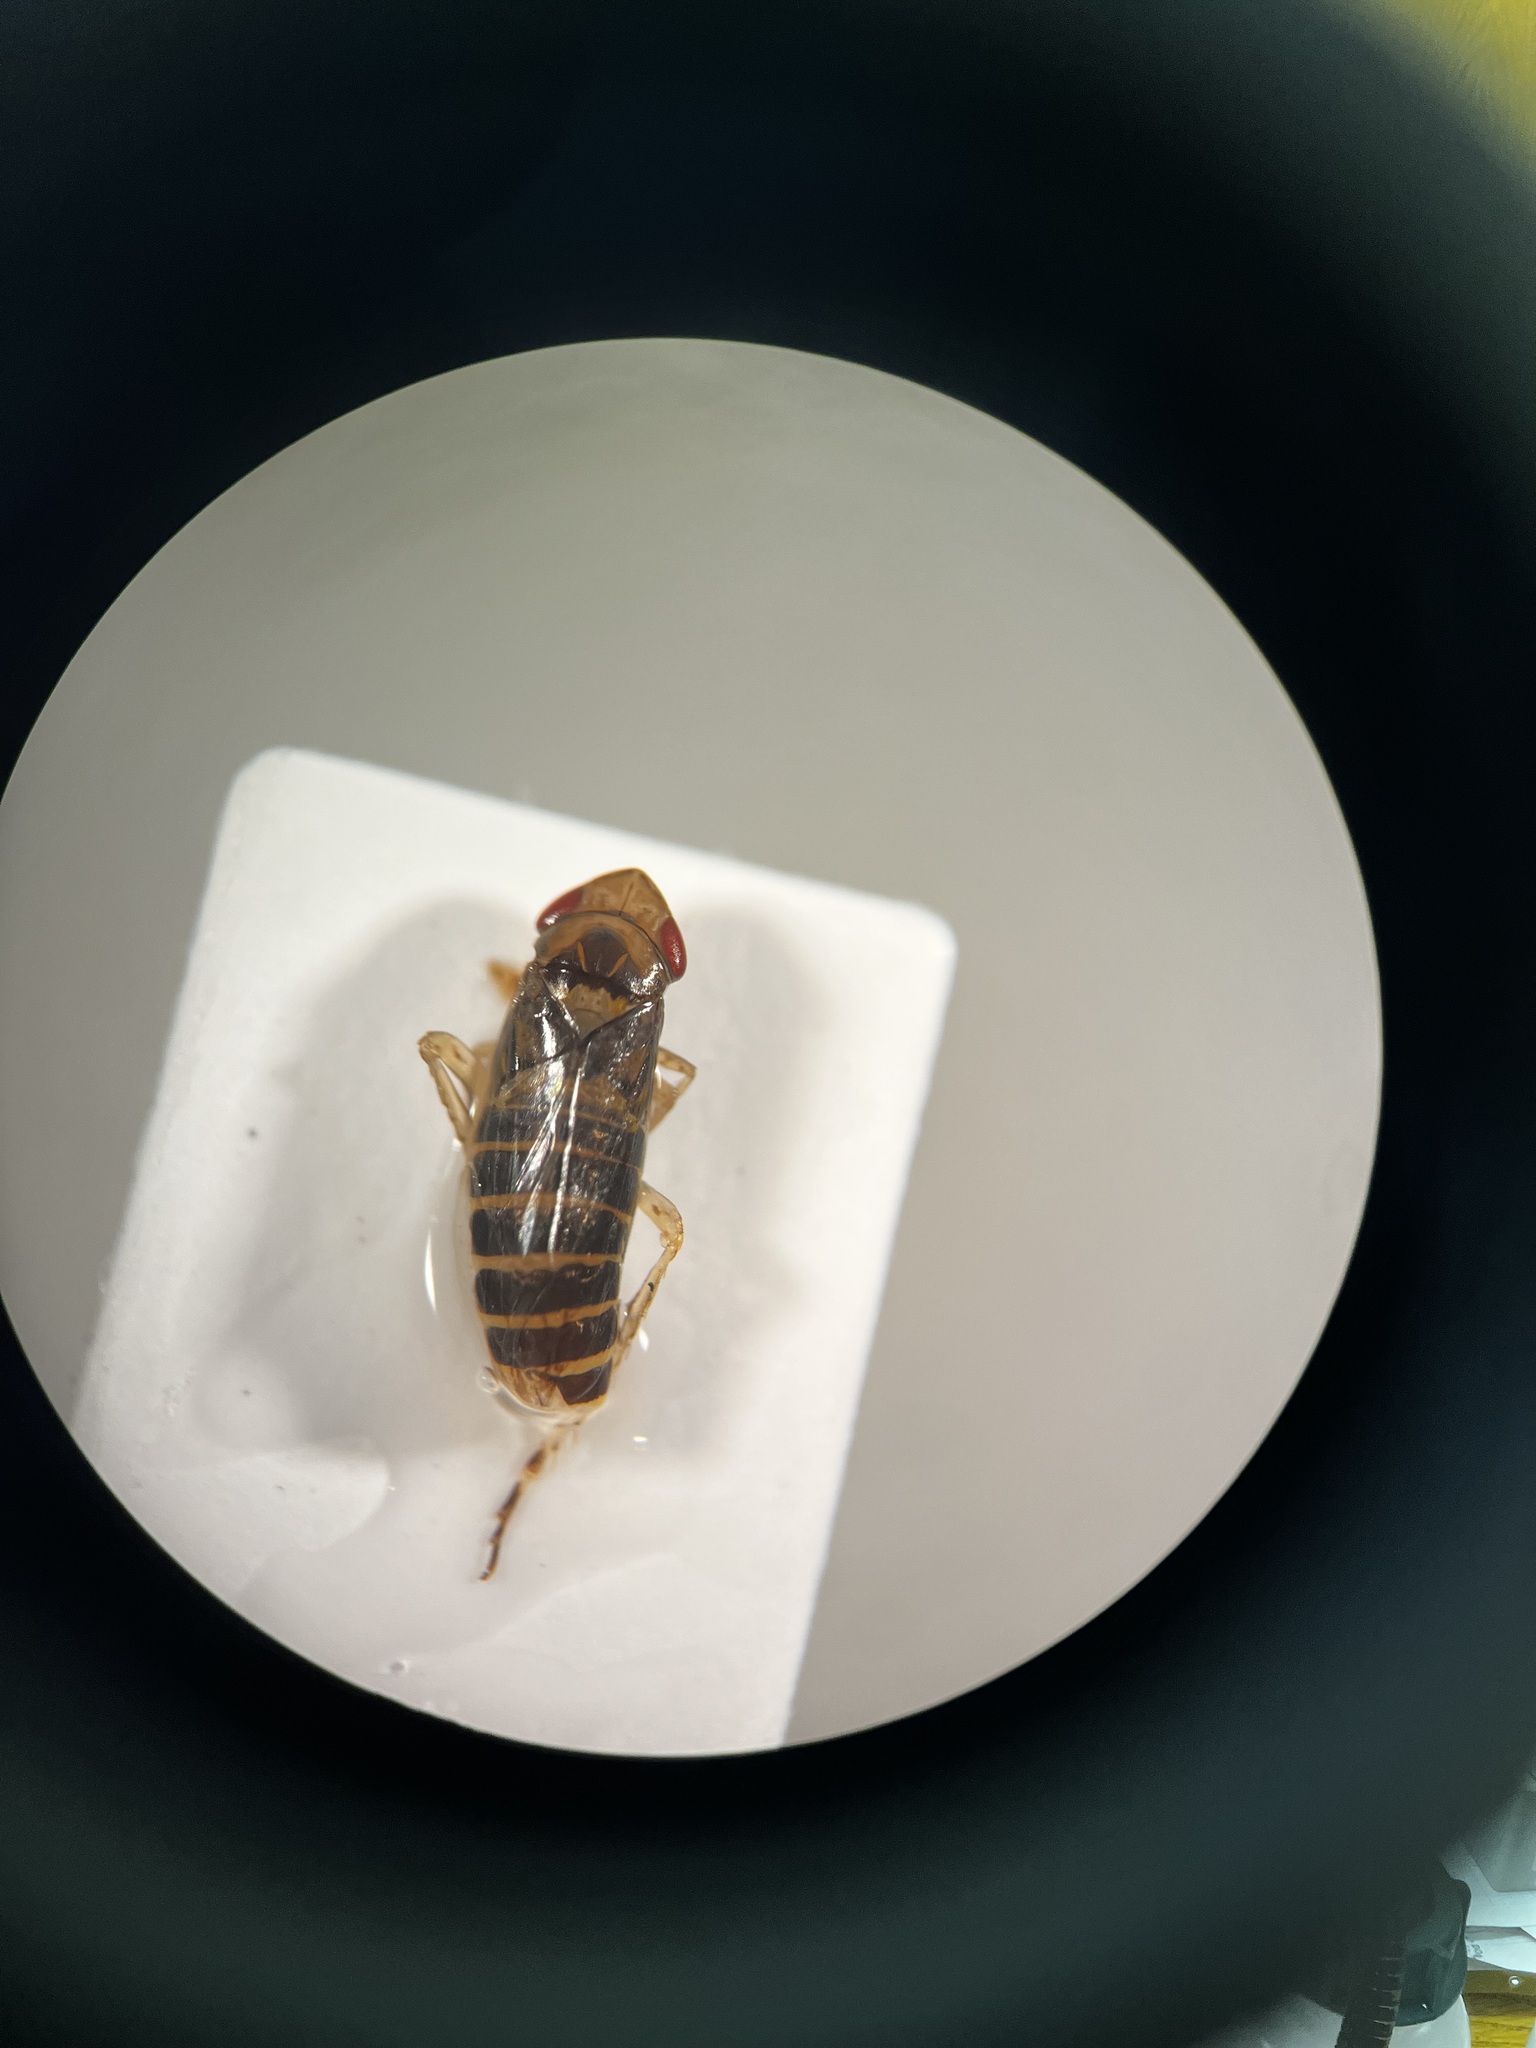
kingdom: Animalia
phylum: Arthropoda
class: Insecta
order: Hemiptera
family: Cicadellidae
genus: Psammotettix
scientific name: Psammotettix confinis
